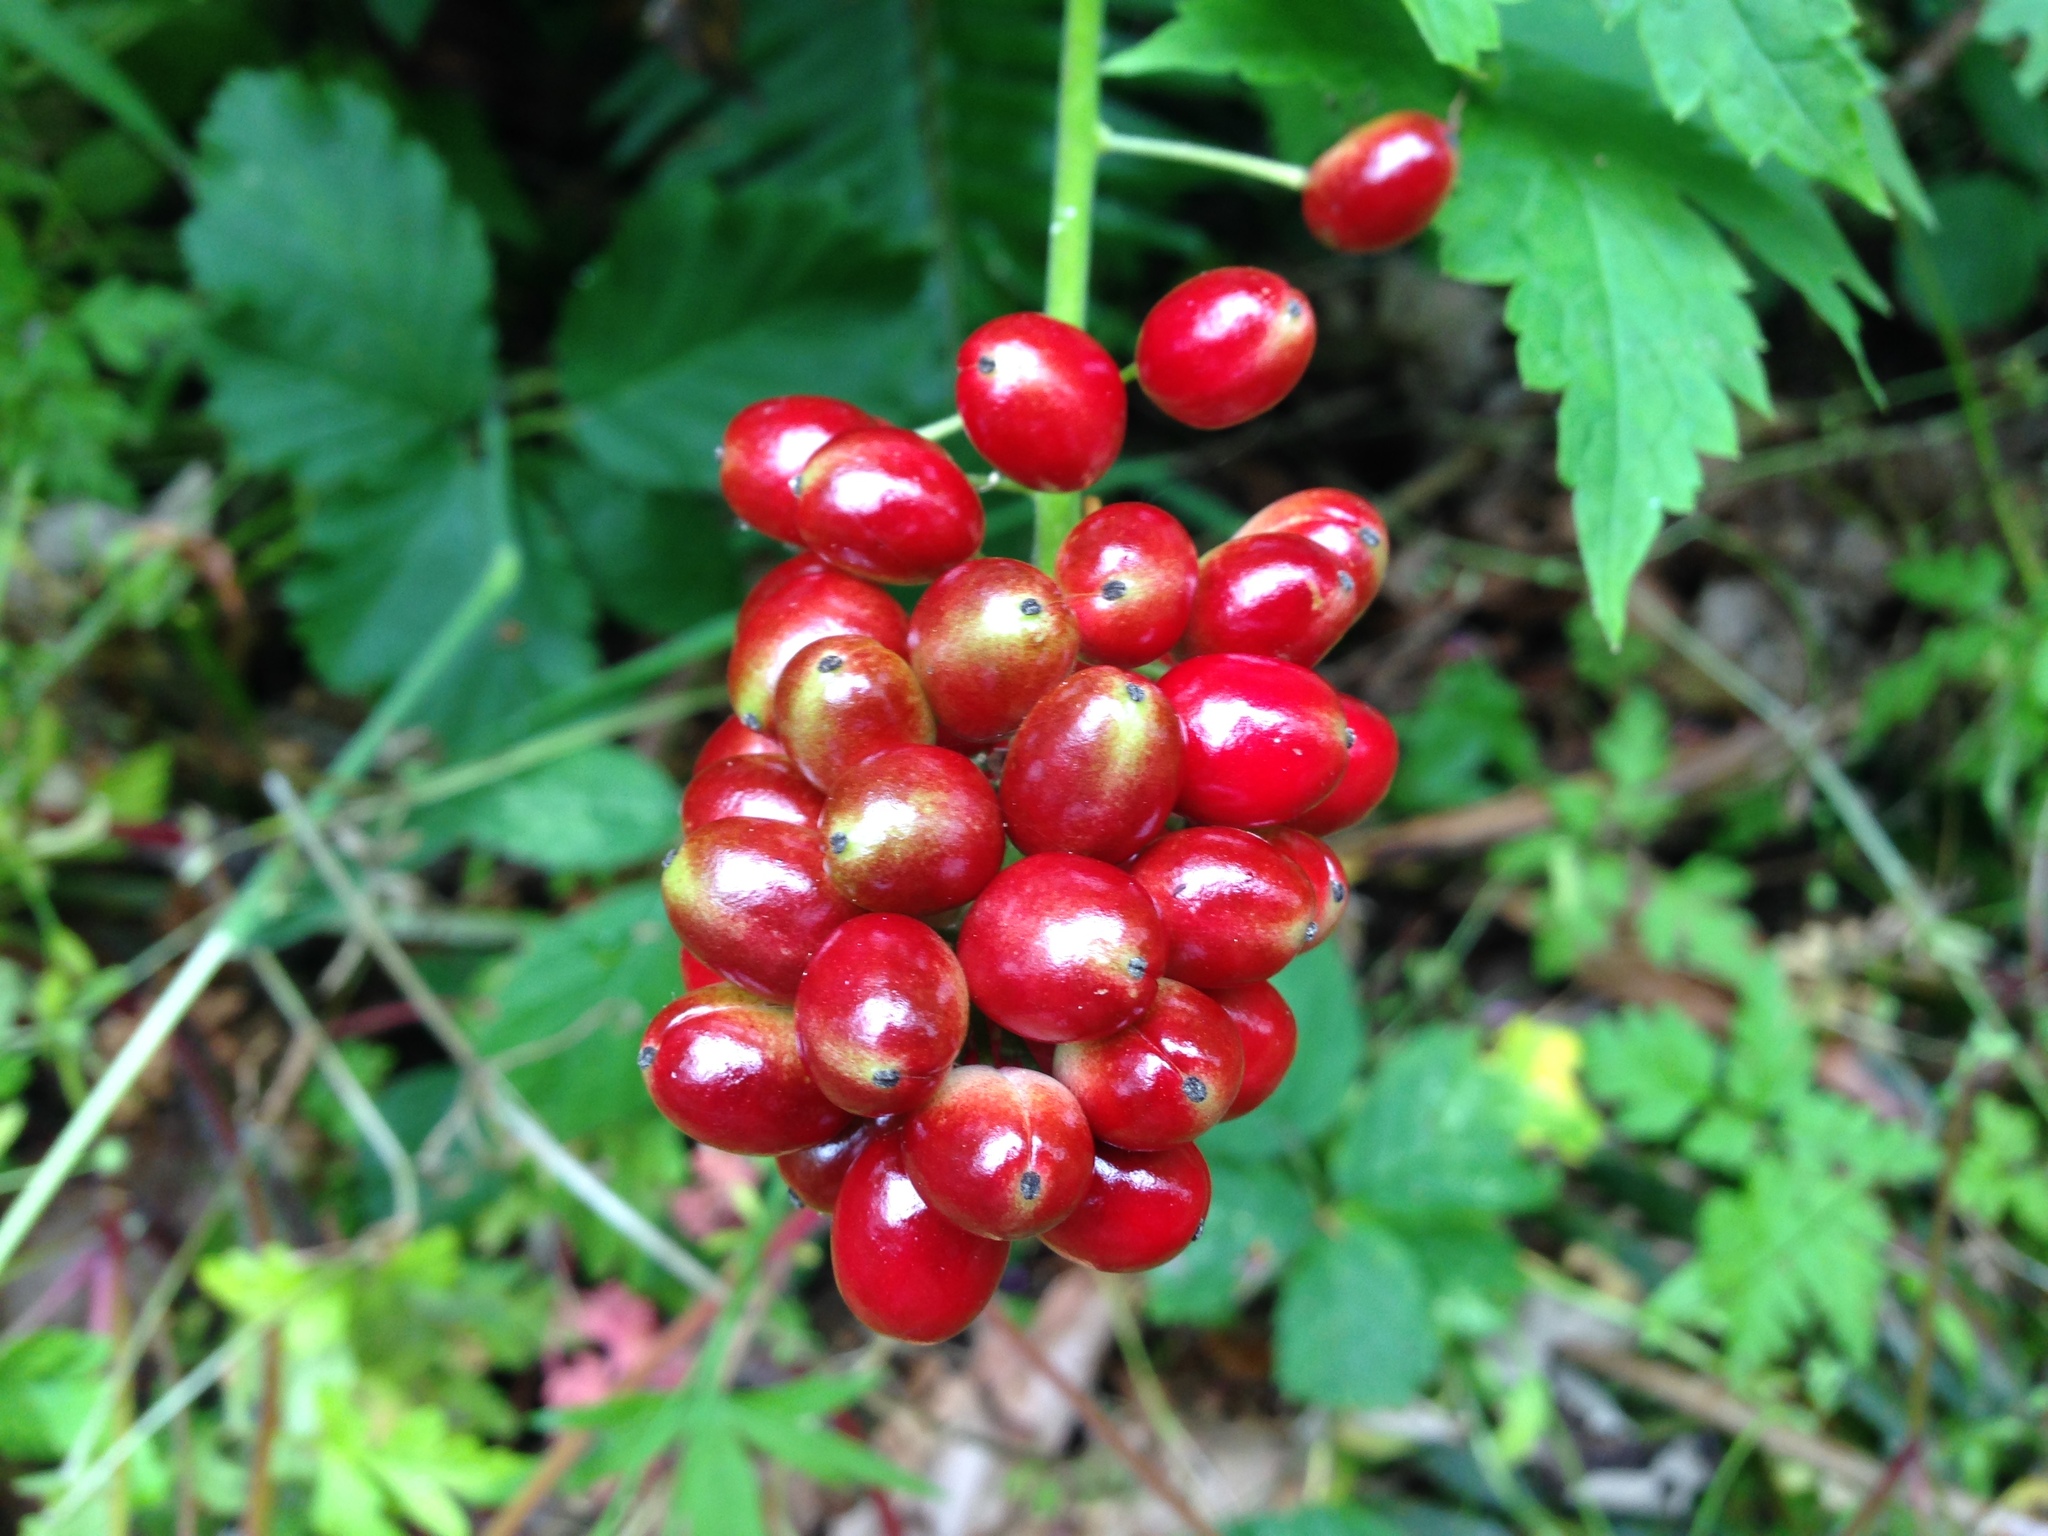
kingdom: Plantae
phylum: Tracheophyta
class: Magnoliopsida
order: Ranunculales
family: Ranunculaceae
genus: Actaea
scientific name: Actaea rubra
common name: Red baneberry
